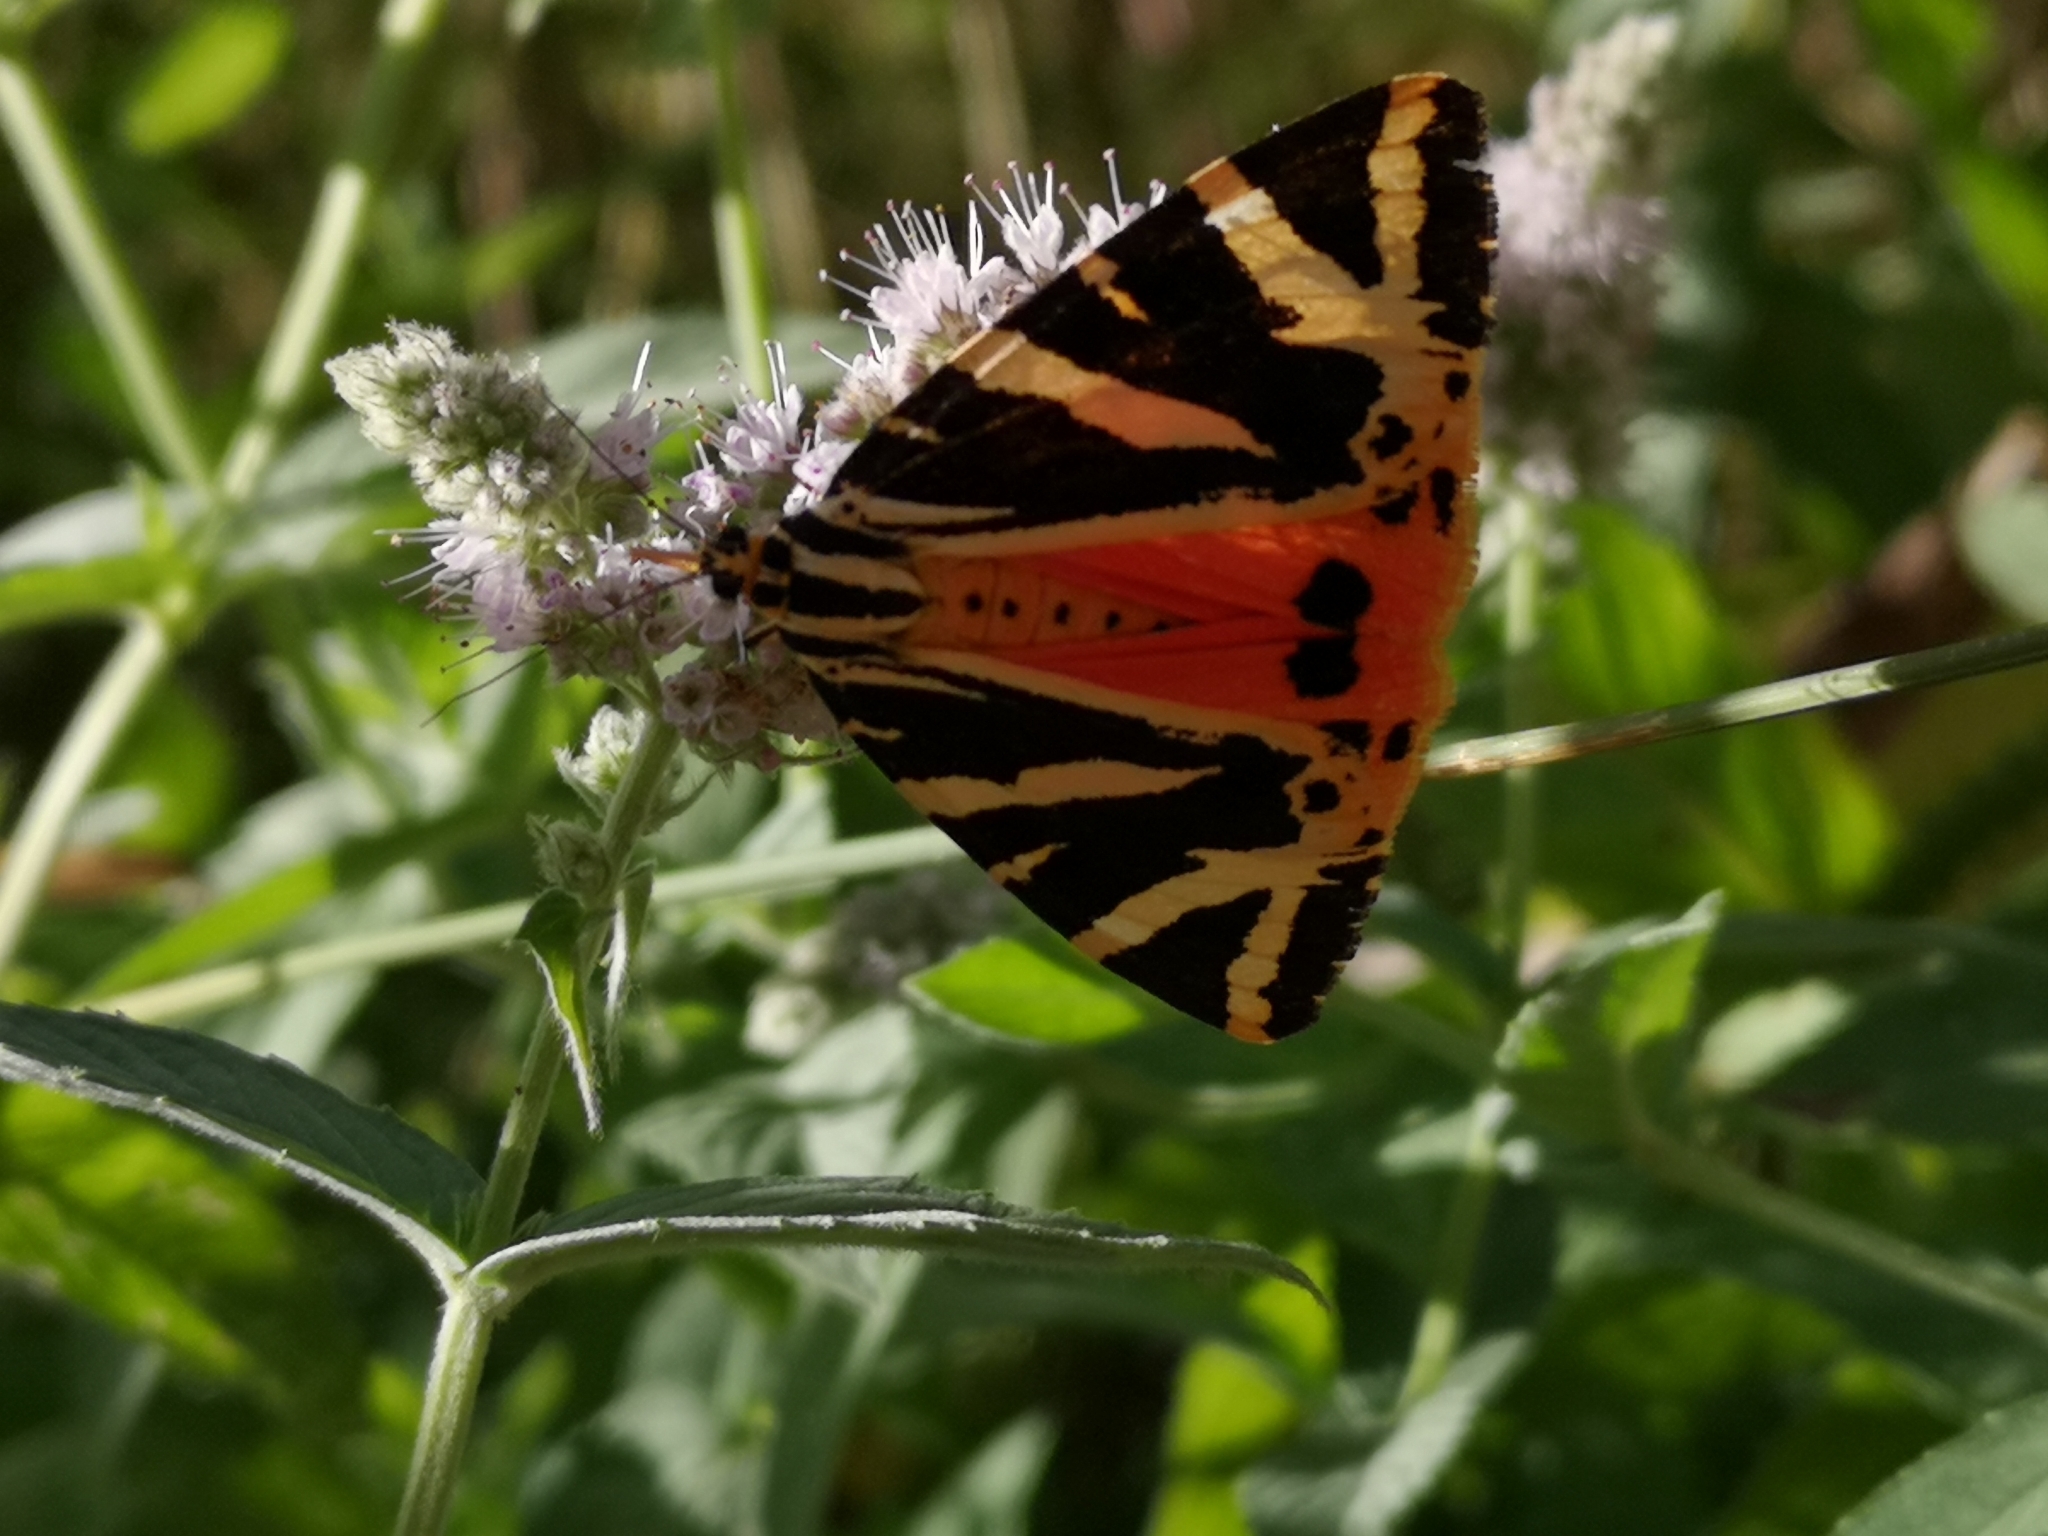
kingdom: Animalia
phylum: Arthropoda
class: Insecta
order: Lepidoptera
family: Erebidae
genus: Euplagia
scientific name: Euplagia quadripunctaria
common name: Jersey tiger
